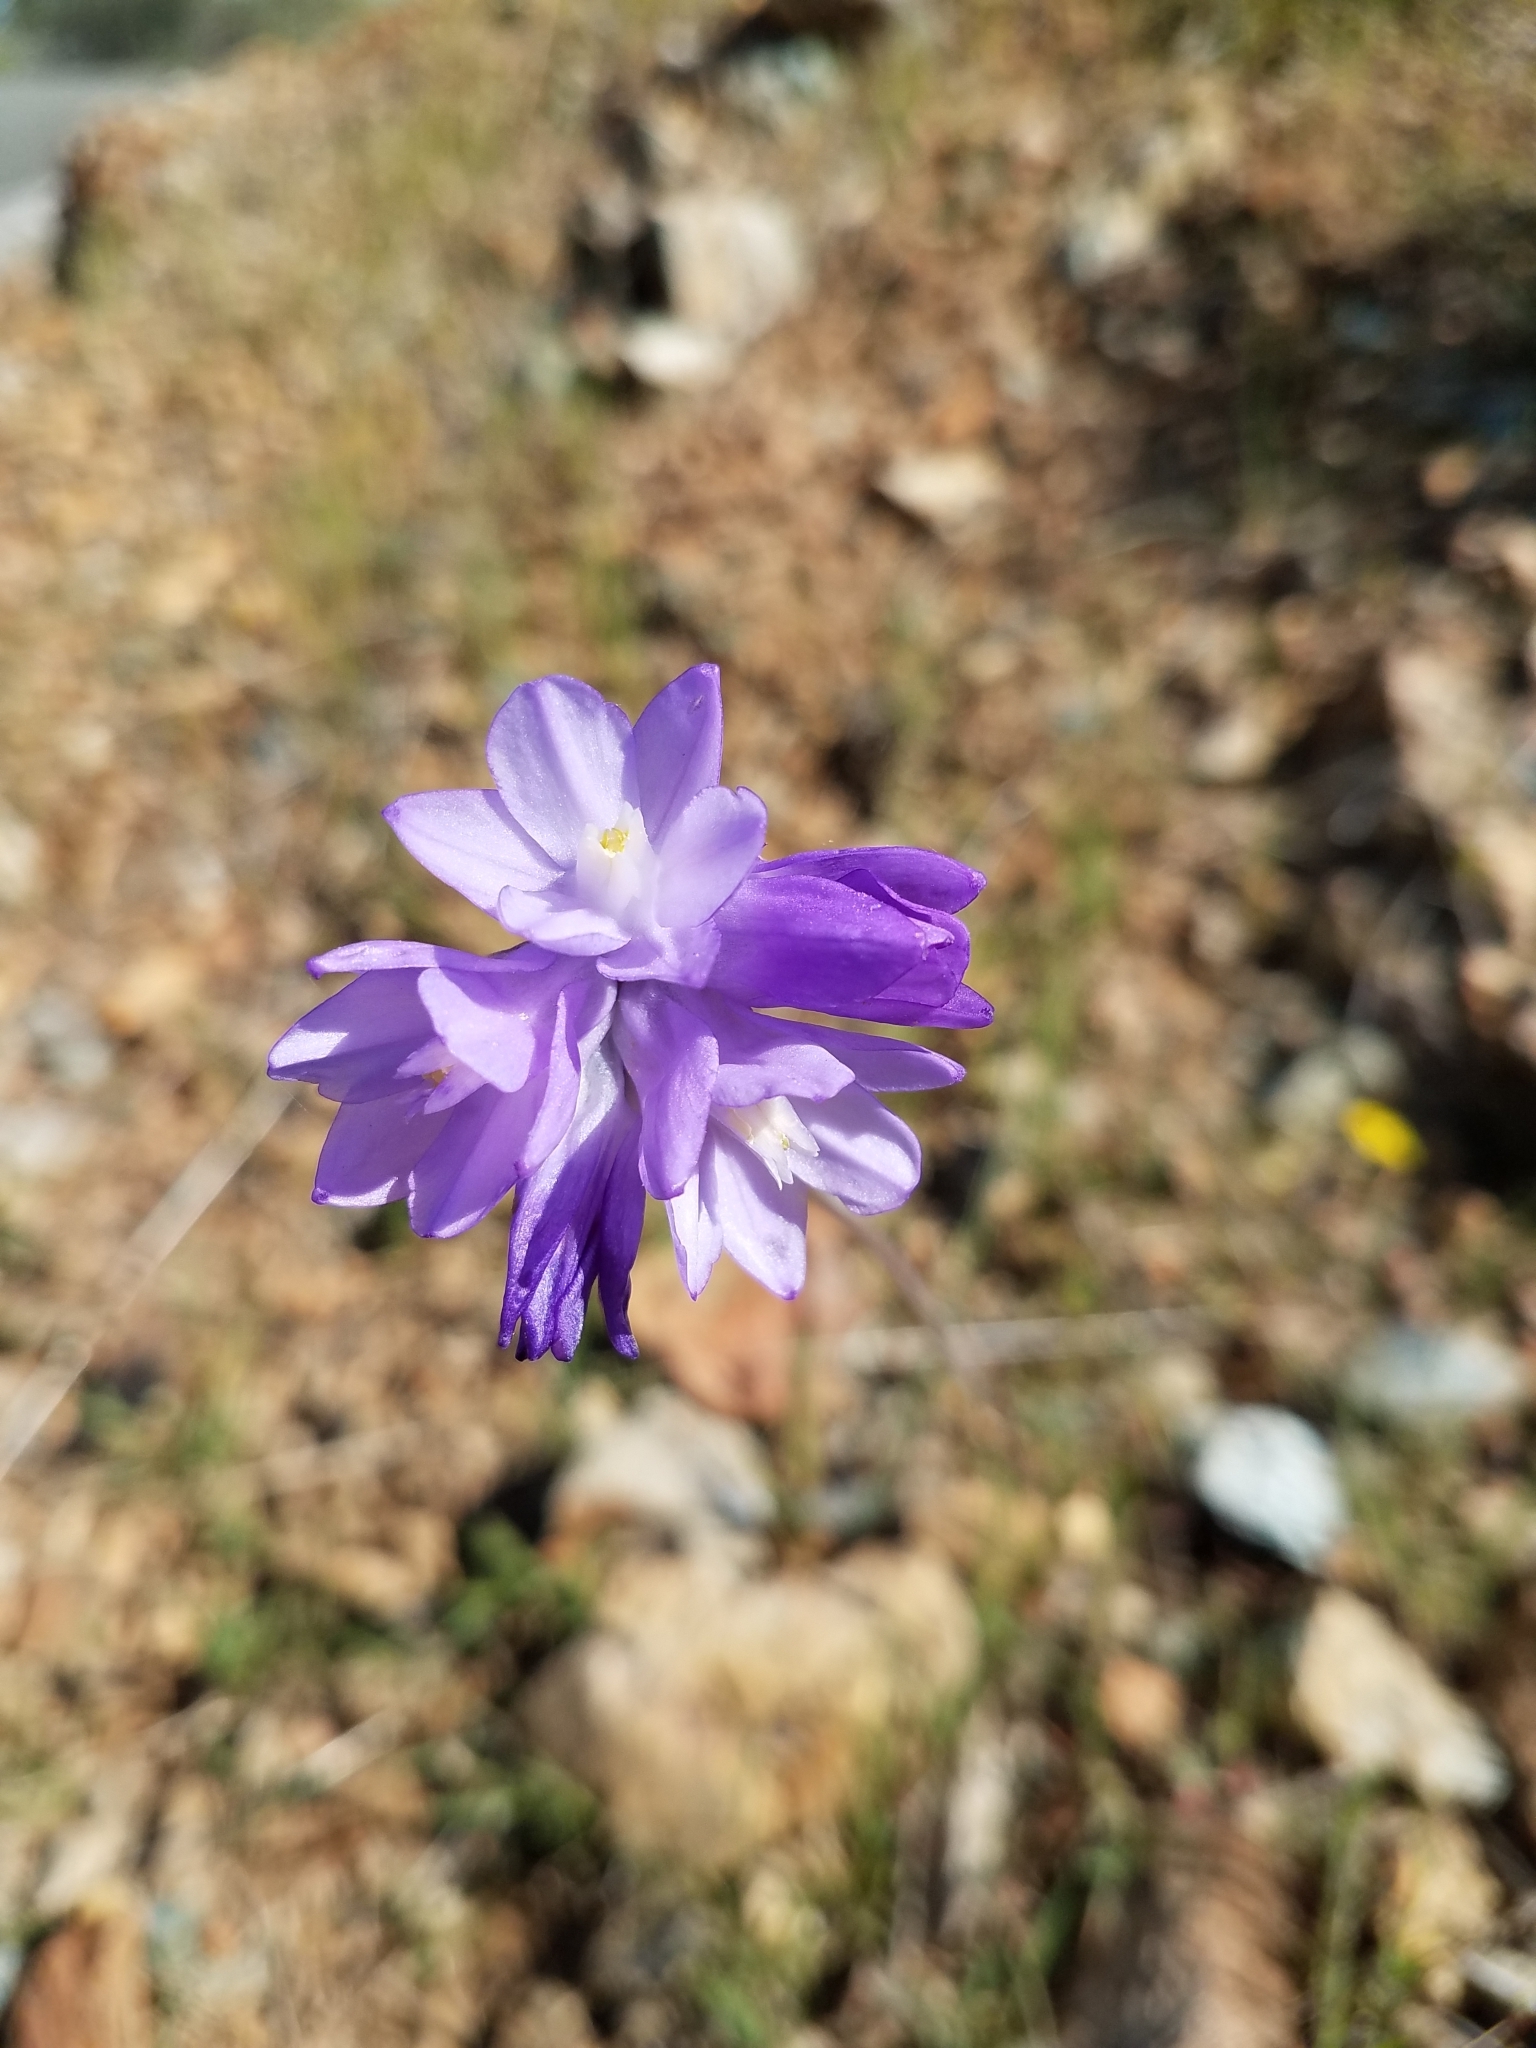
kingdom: Plantae
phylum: Tracheophyta
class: Liliopsida
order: Asparagales
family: Asparagaceae
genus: Dipterostemon
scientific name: Dipterostemon capitatus
